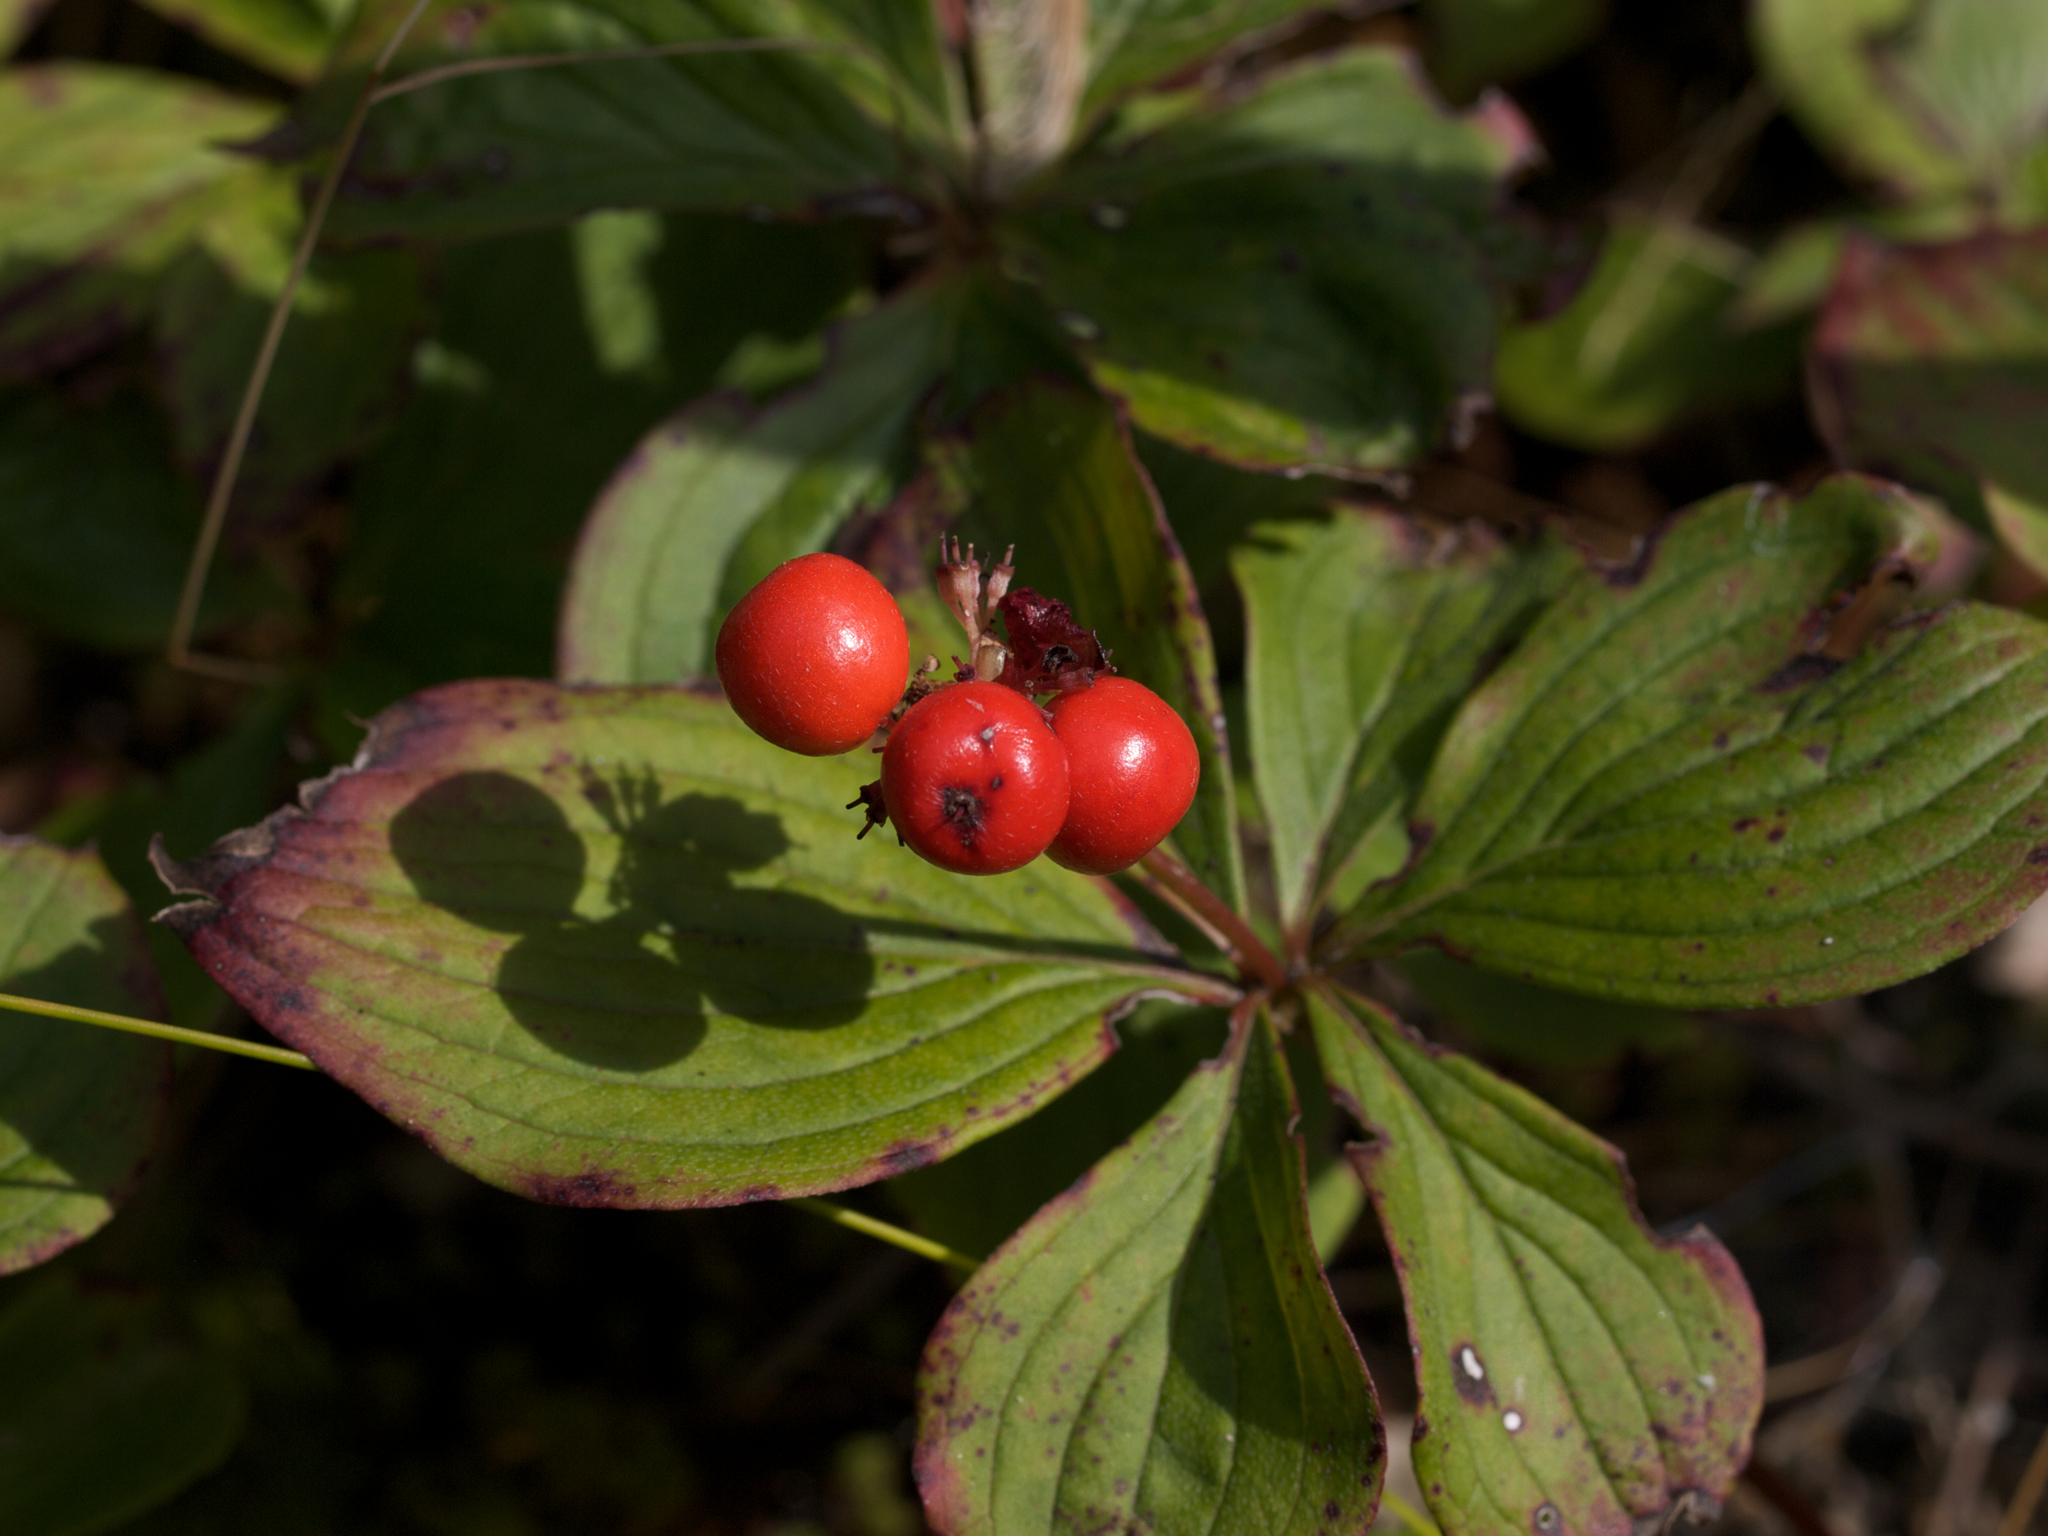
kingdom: Plantae
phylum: Tracheophyta
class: Magnoliopsida
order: Cornales
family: Cornaceae
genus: Cornus
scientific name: Cornus canadensis
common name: Creeping dogwood
